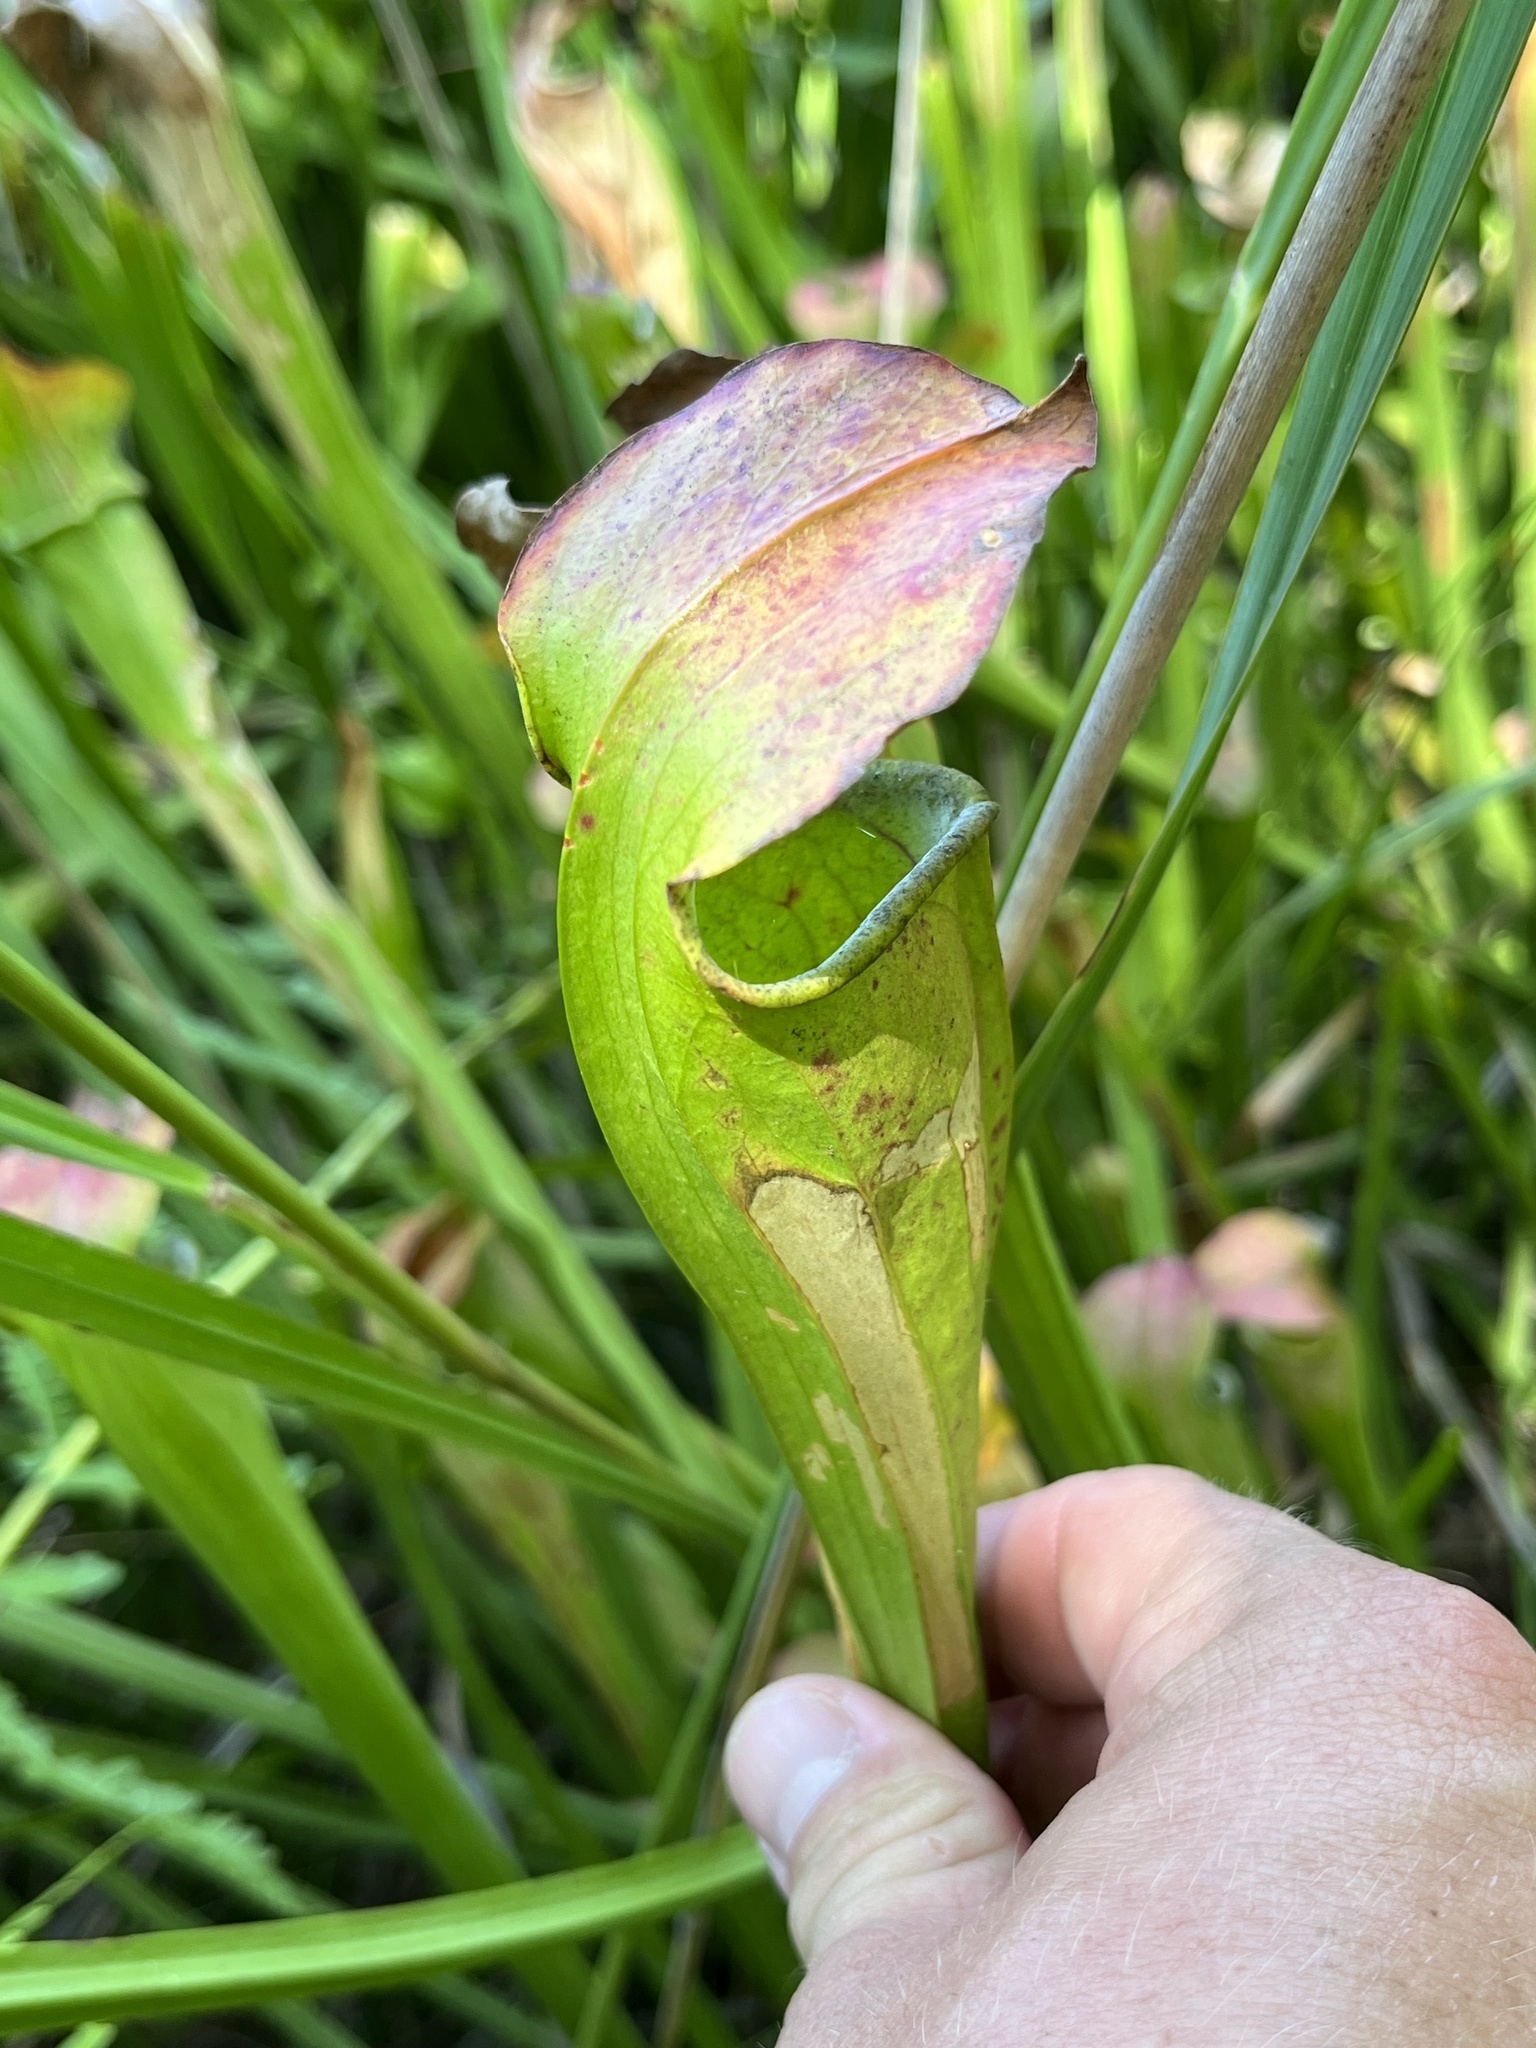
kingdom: Plantae
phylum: Tracheophyta
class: Magnoliopsida
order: Ericales
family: Sarraceniaceae
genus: Sarracenia
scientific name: Sarracenia alata
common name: Yellow trumpets
